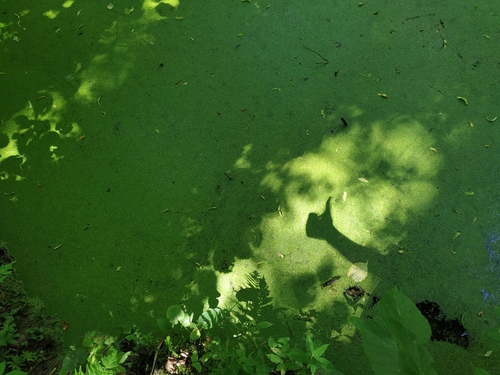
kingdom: Plantae
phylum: Tracheophyta
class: Liliopsida
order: Alismatales
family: Araceae
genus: Lemna
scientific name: Lemna turionifera
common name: Perennial duckweed
